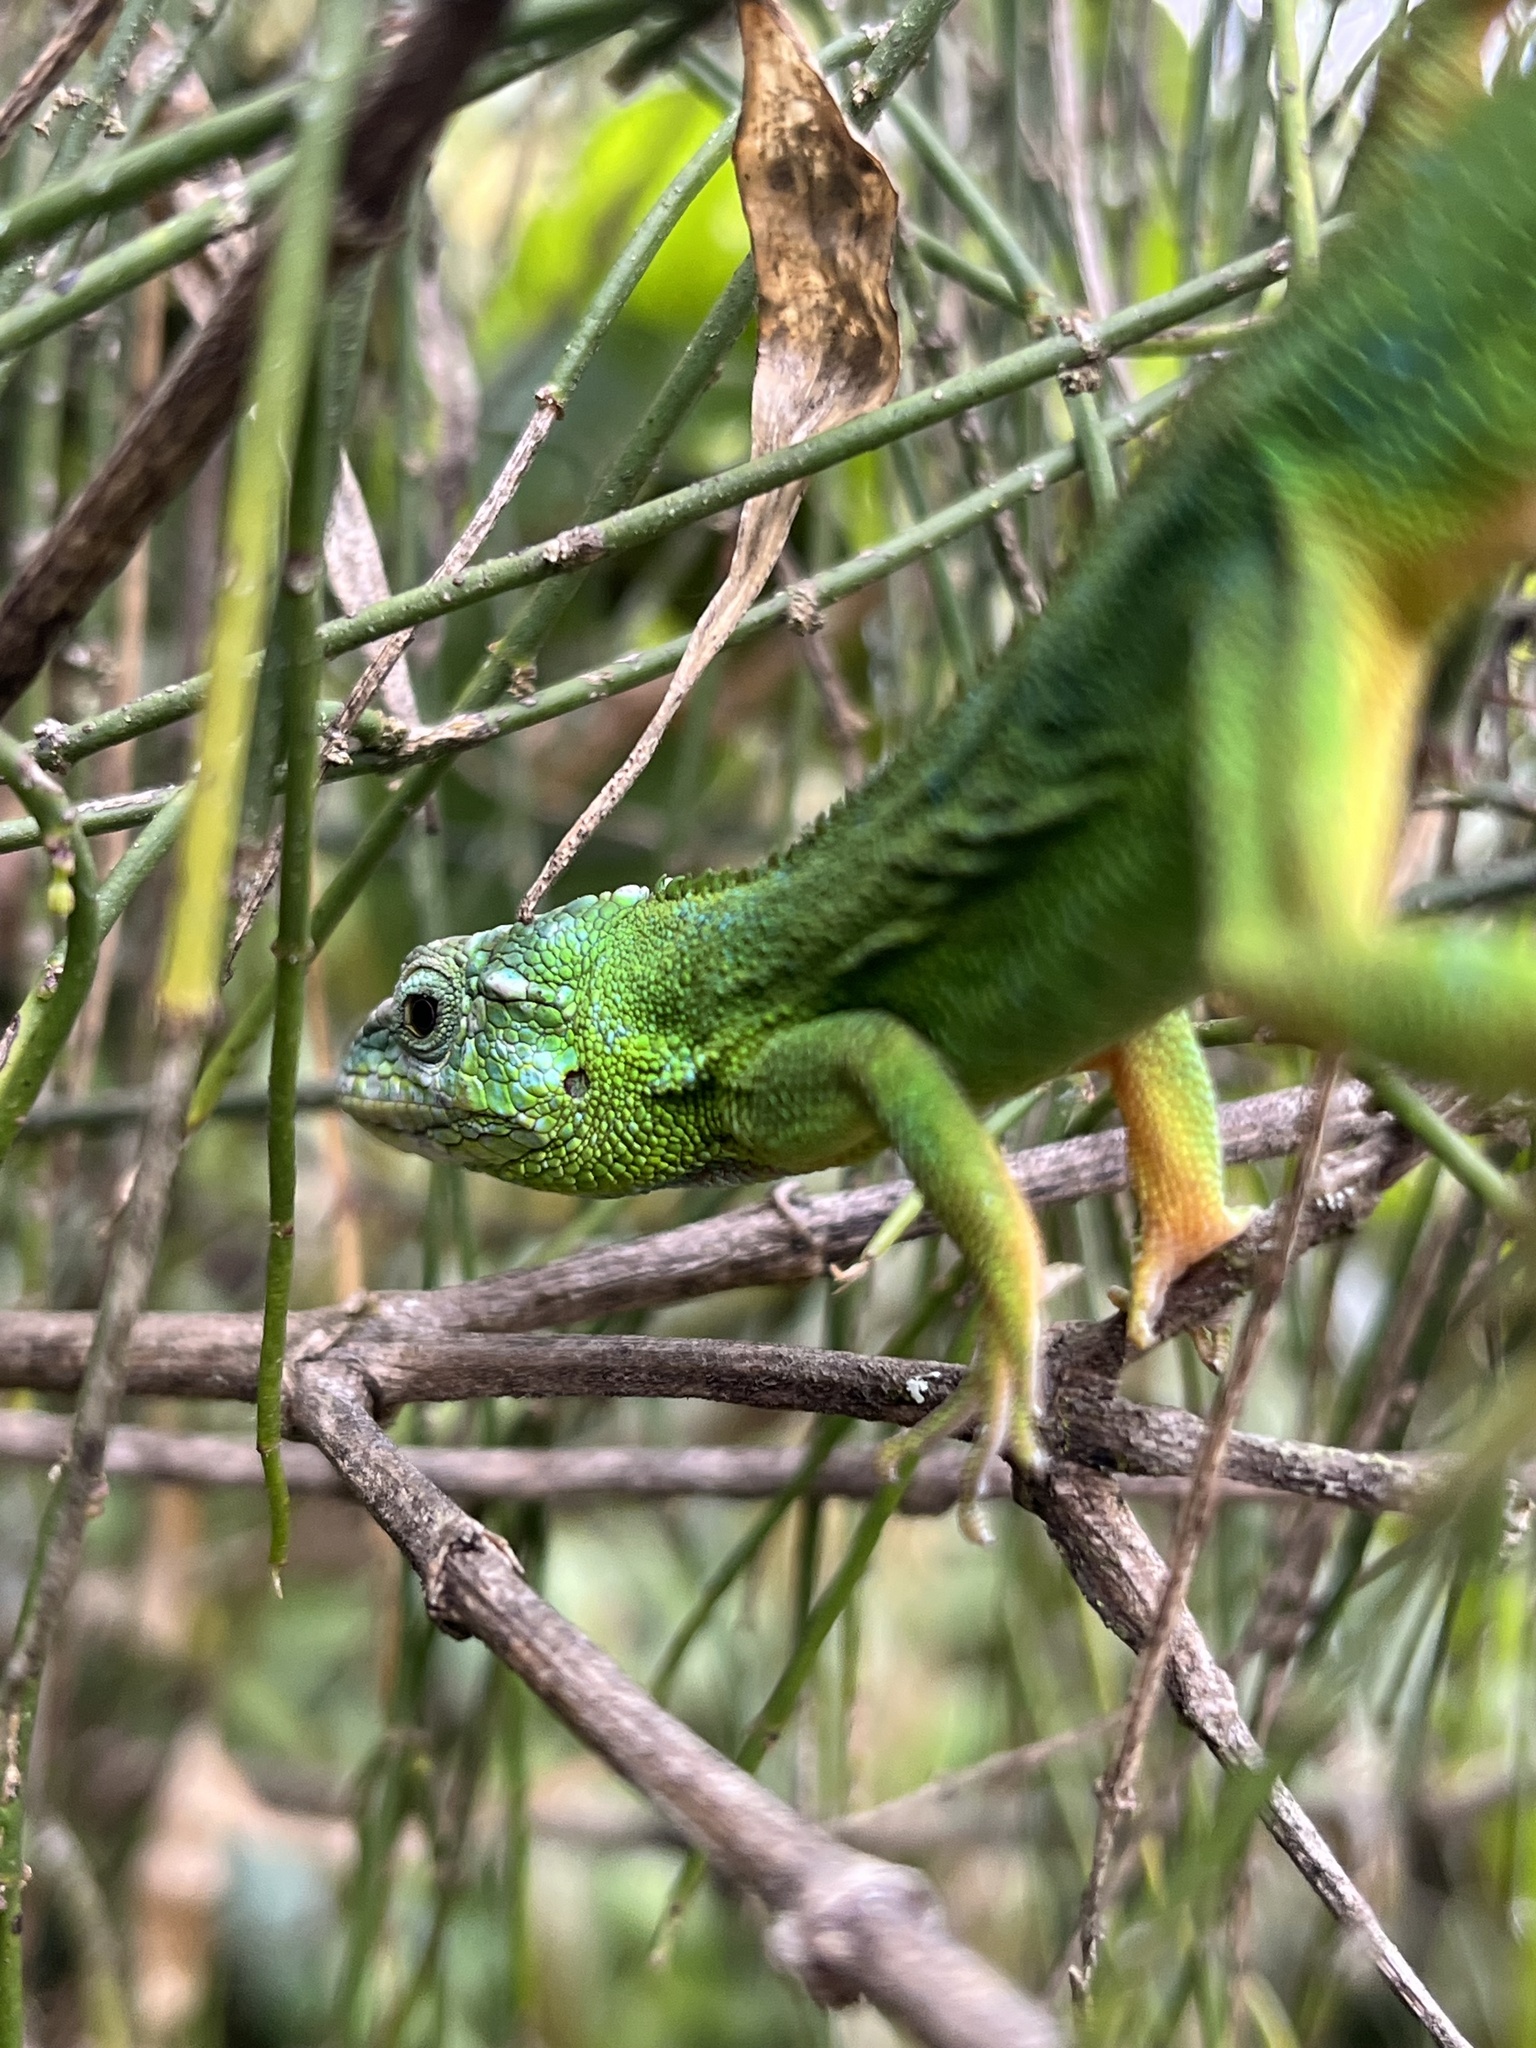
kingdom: Animalia
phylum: Chordata
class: Squamata
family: Dactyloidae
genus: Anolis
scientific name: Anolis heterodermus
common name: Flat andes anole
